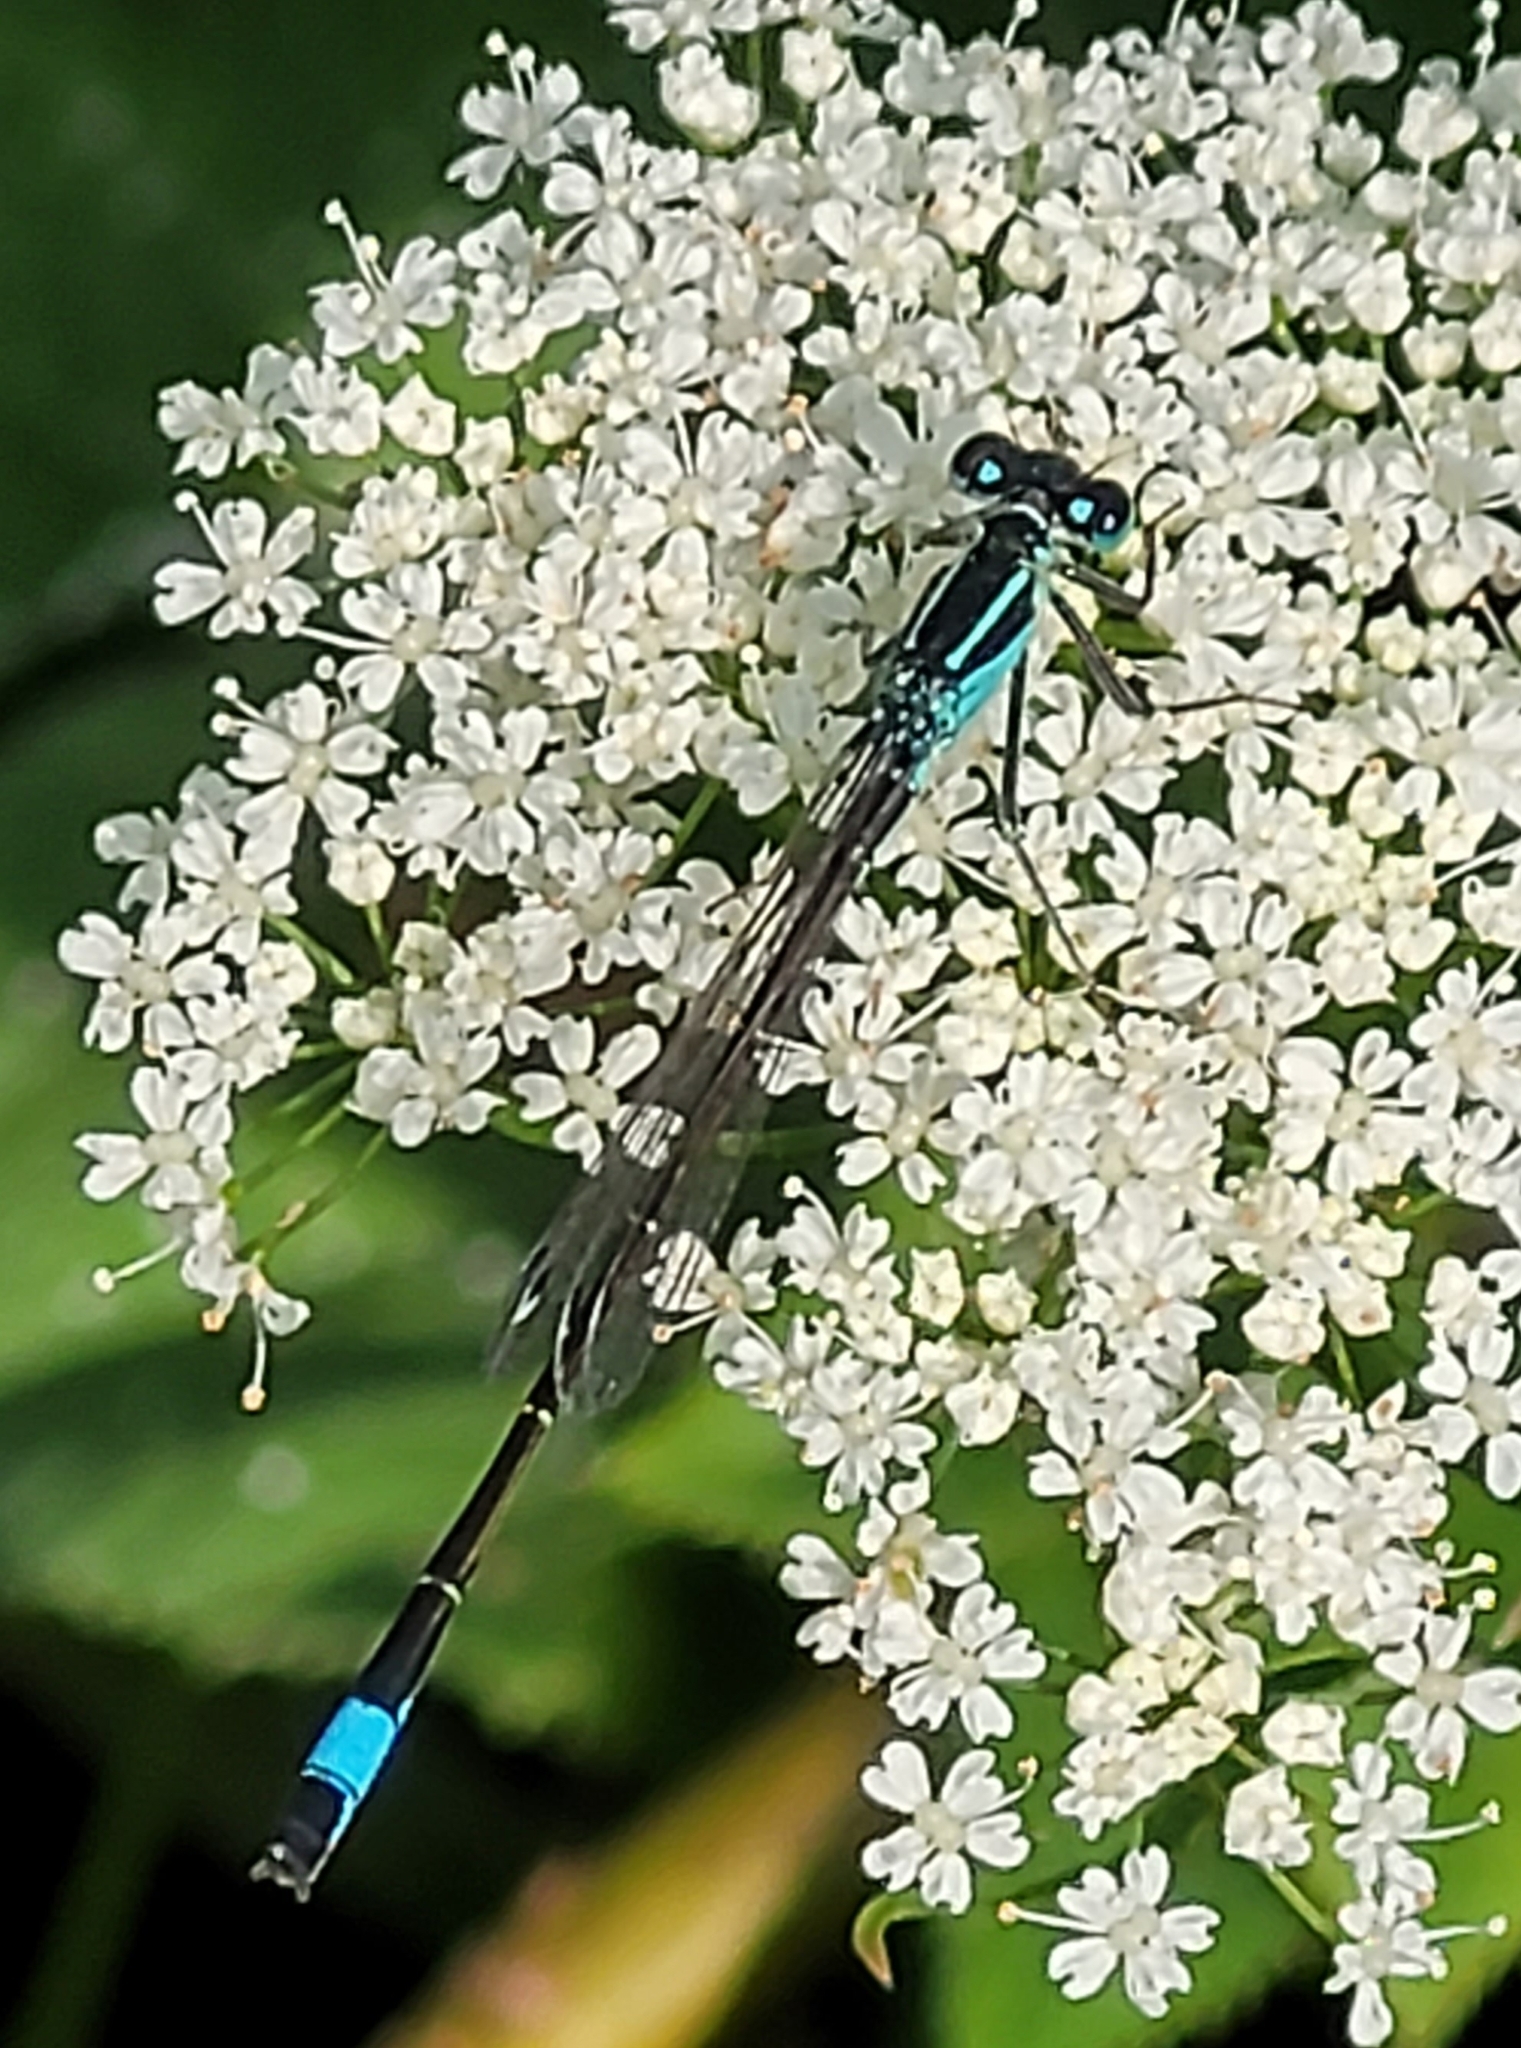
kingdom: Animalia
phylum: Arthropoda
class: Insecta
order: Odonata
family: Coenagrionidae
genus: Ischnura
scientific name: Ischnura elegans
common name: Blue-tailed damselfly
